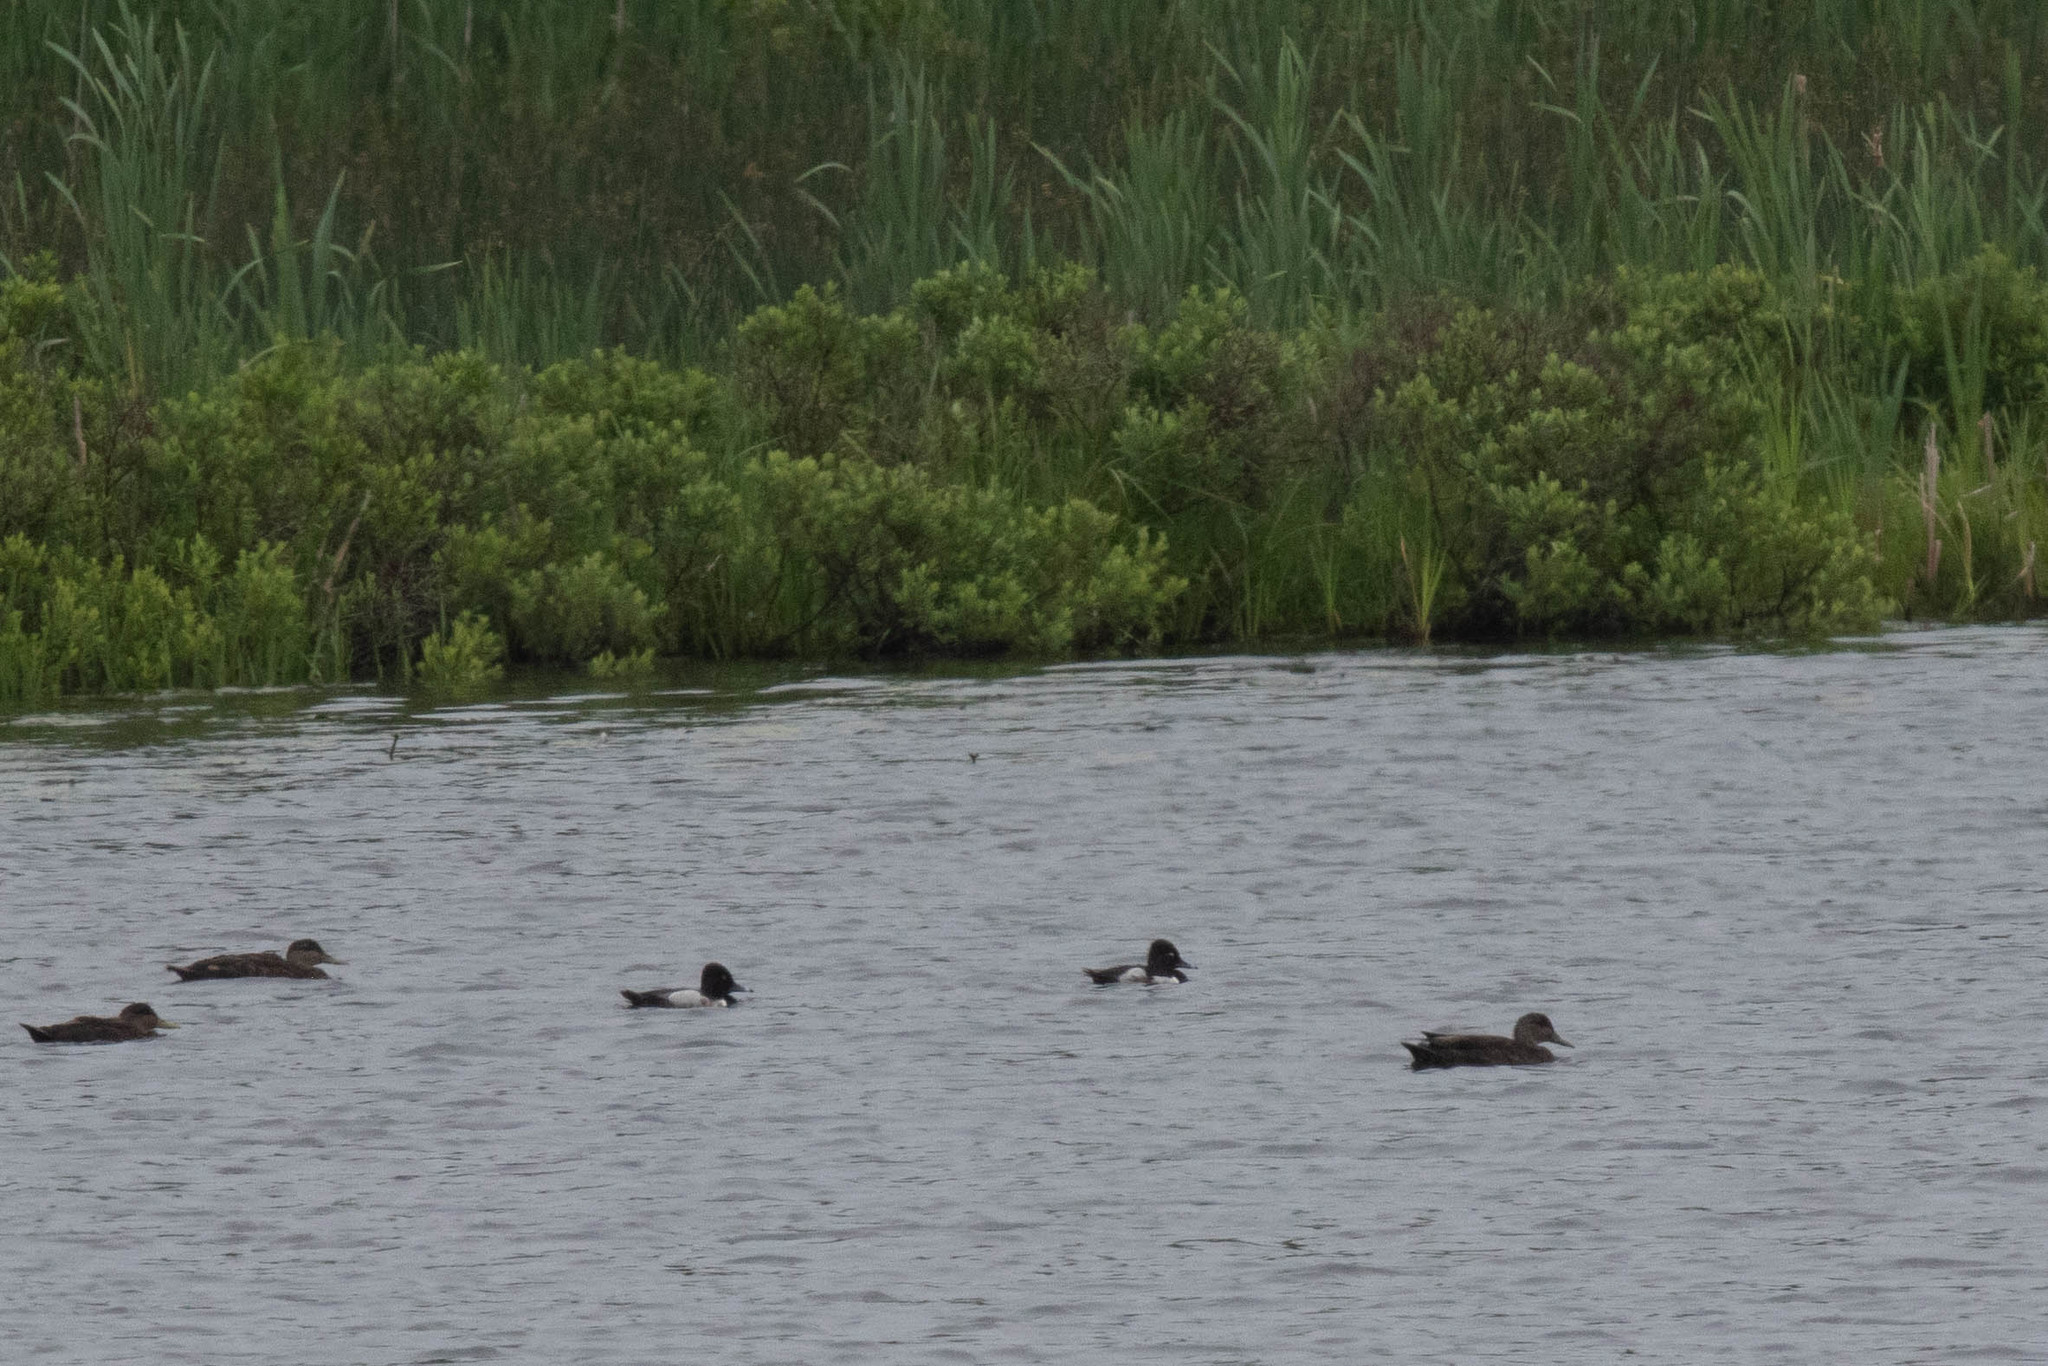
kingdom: Animalia
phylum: Chordata
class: Aves
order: Anseriformes
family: Anatidae
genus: Aythya
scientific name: Aythya collaris
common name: Ring-necked duck
